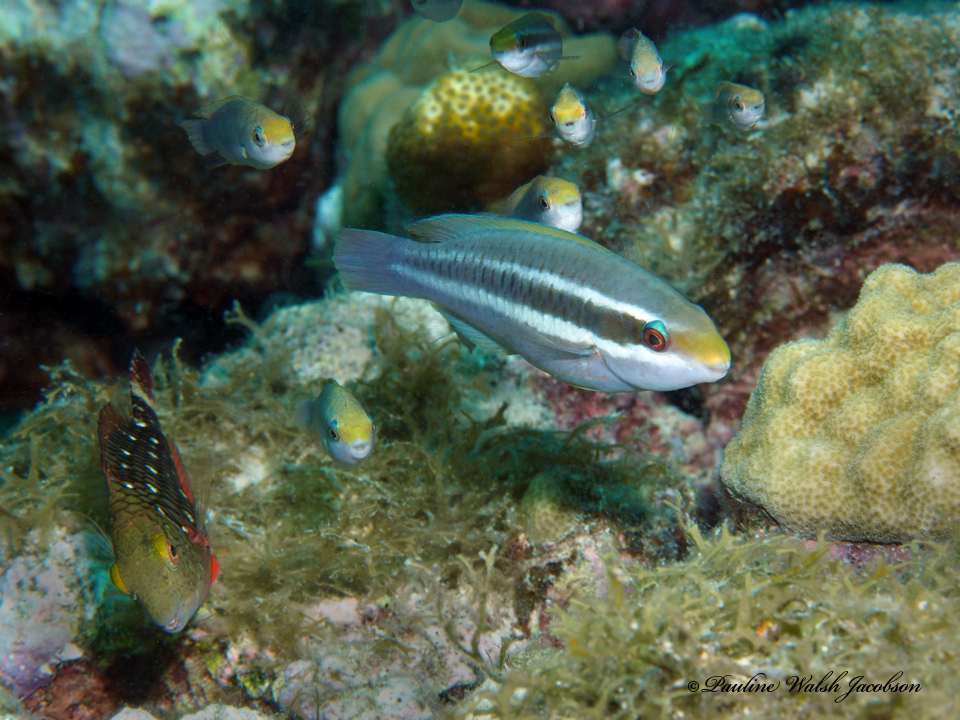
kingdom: Animalia
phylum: Chordata
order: Perciformes
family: Scaridae
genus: Sparisoma
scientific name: Sparisoma viride
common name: Stoplight parrotfish
